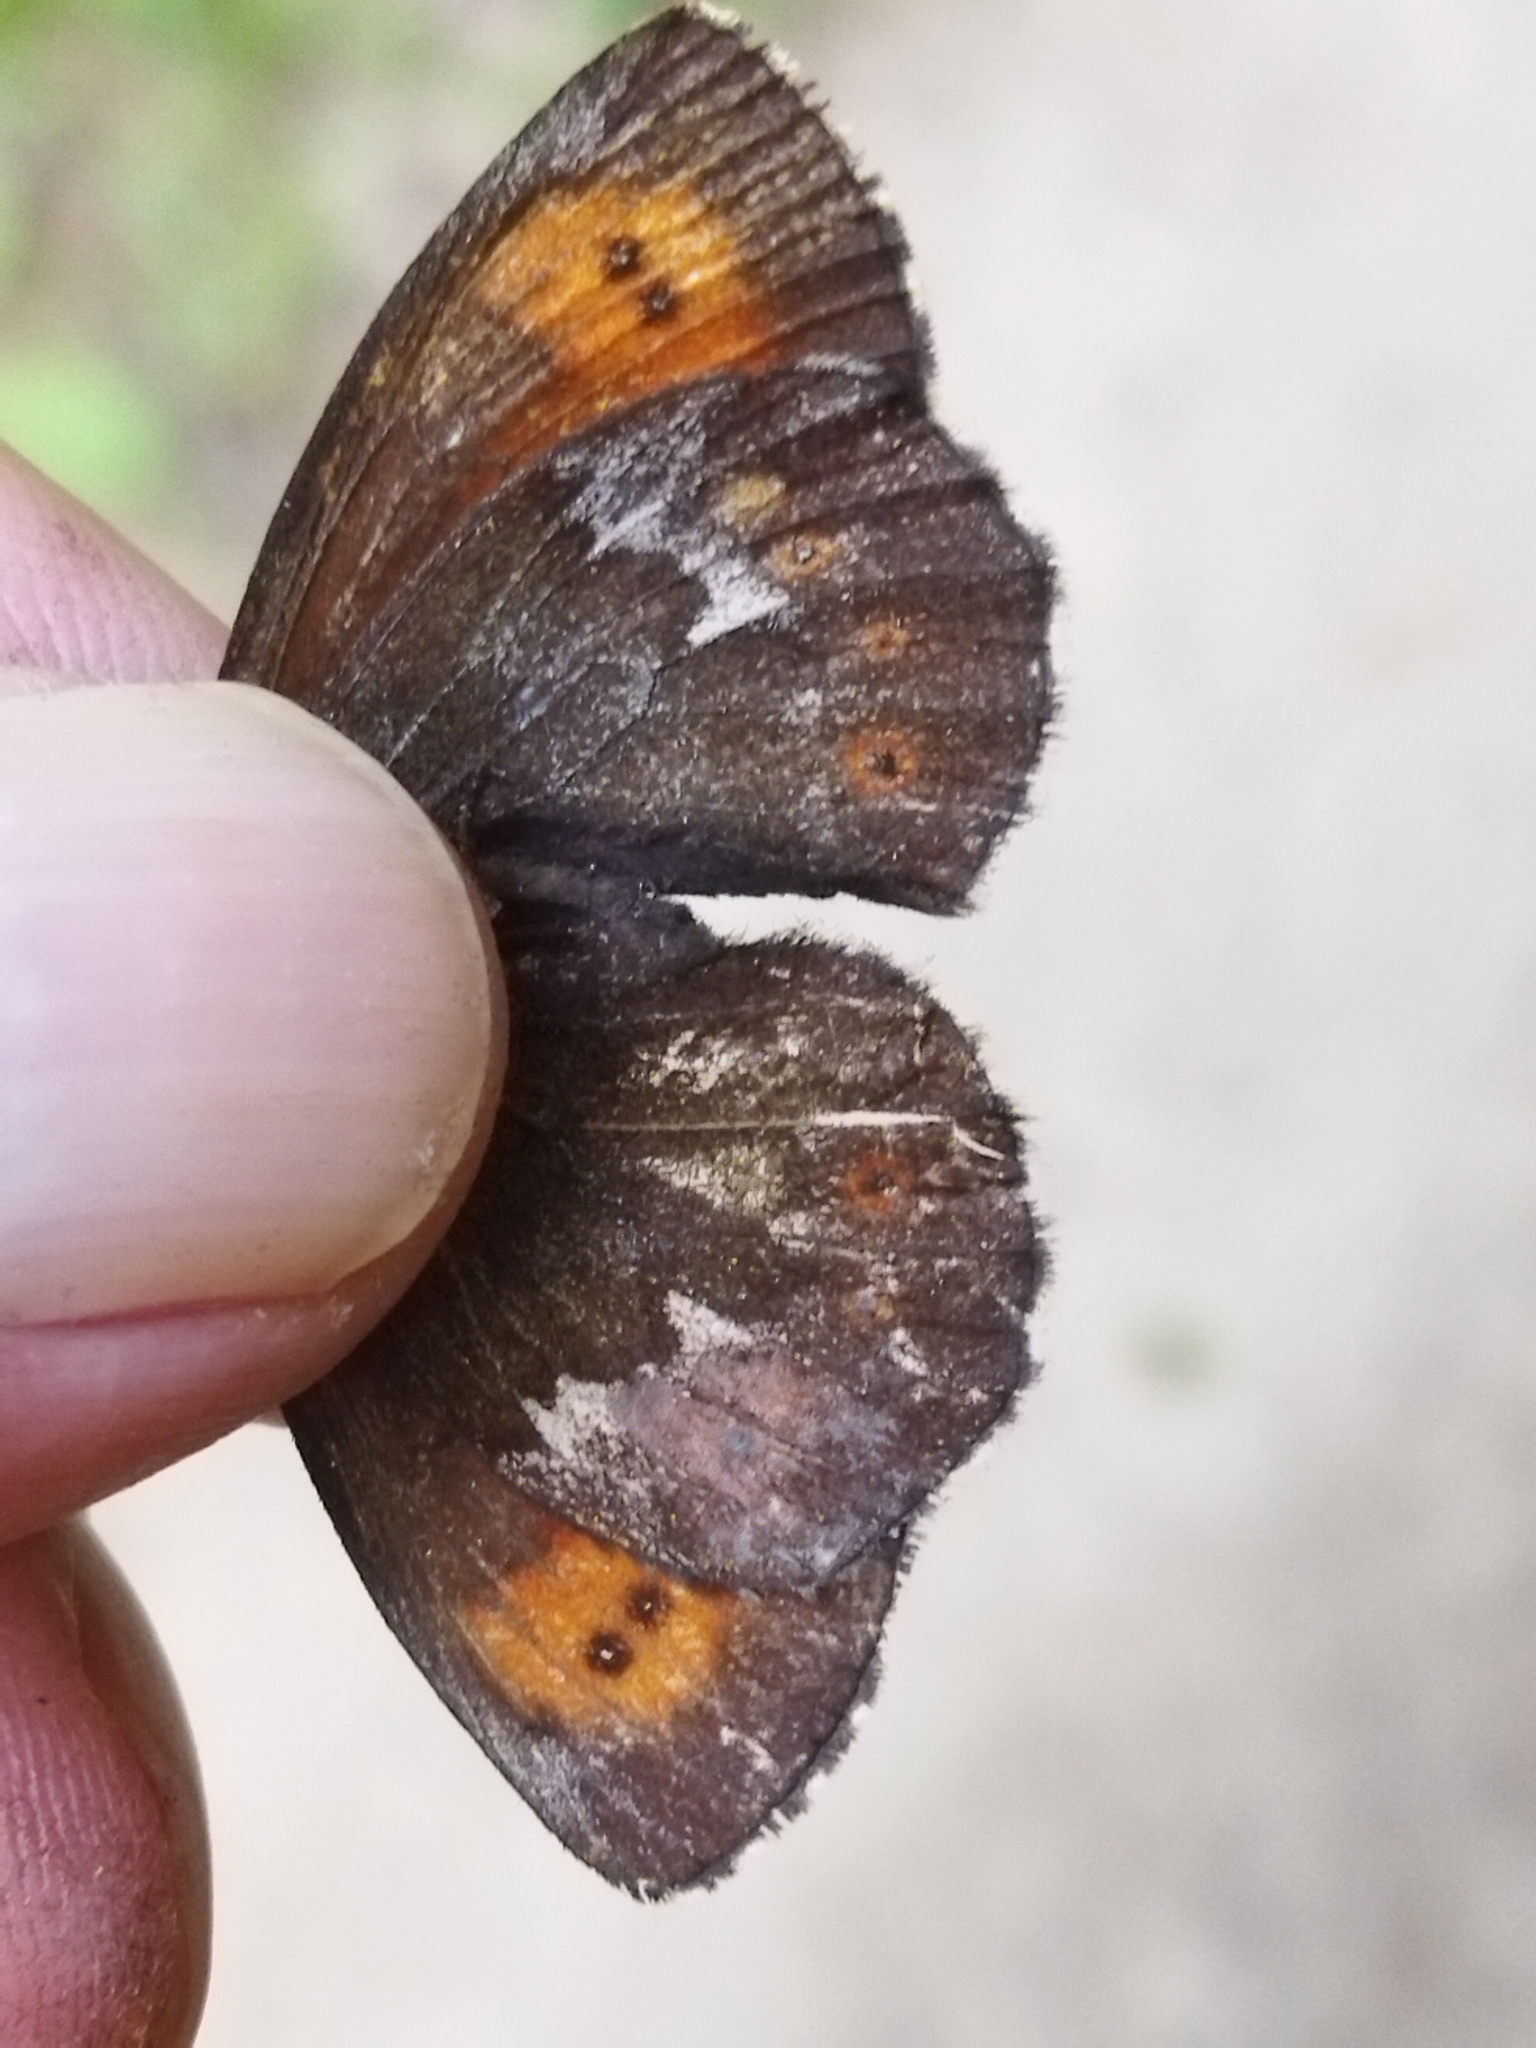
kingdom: Animalia
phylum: Arthropoda
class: Insecta
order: Lepidoptera
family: Nymphalidae
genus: Erebia
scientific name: Erebia euryale
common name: Large ringlet
